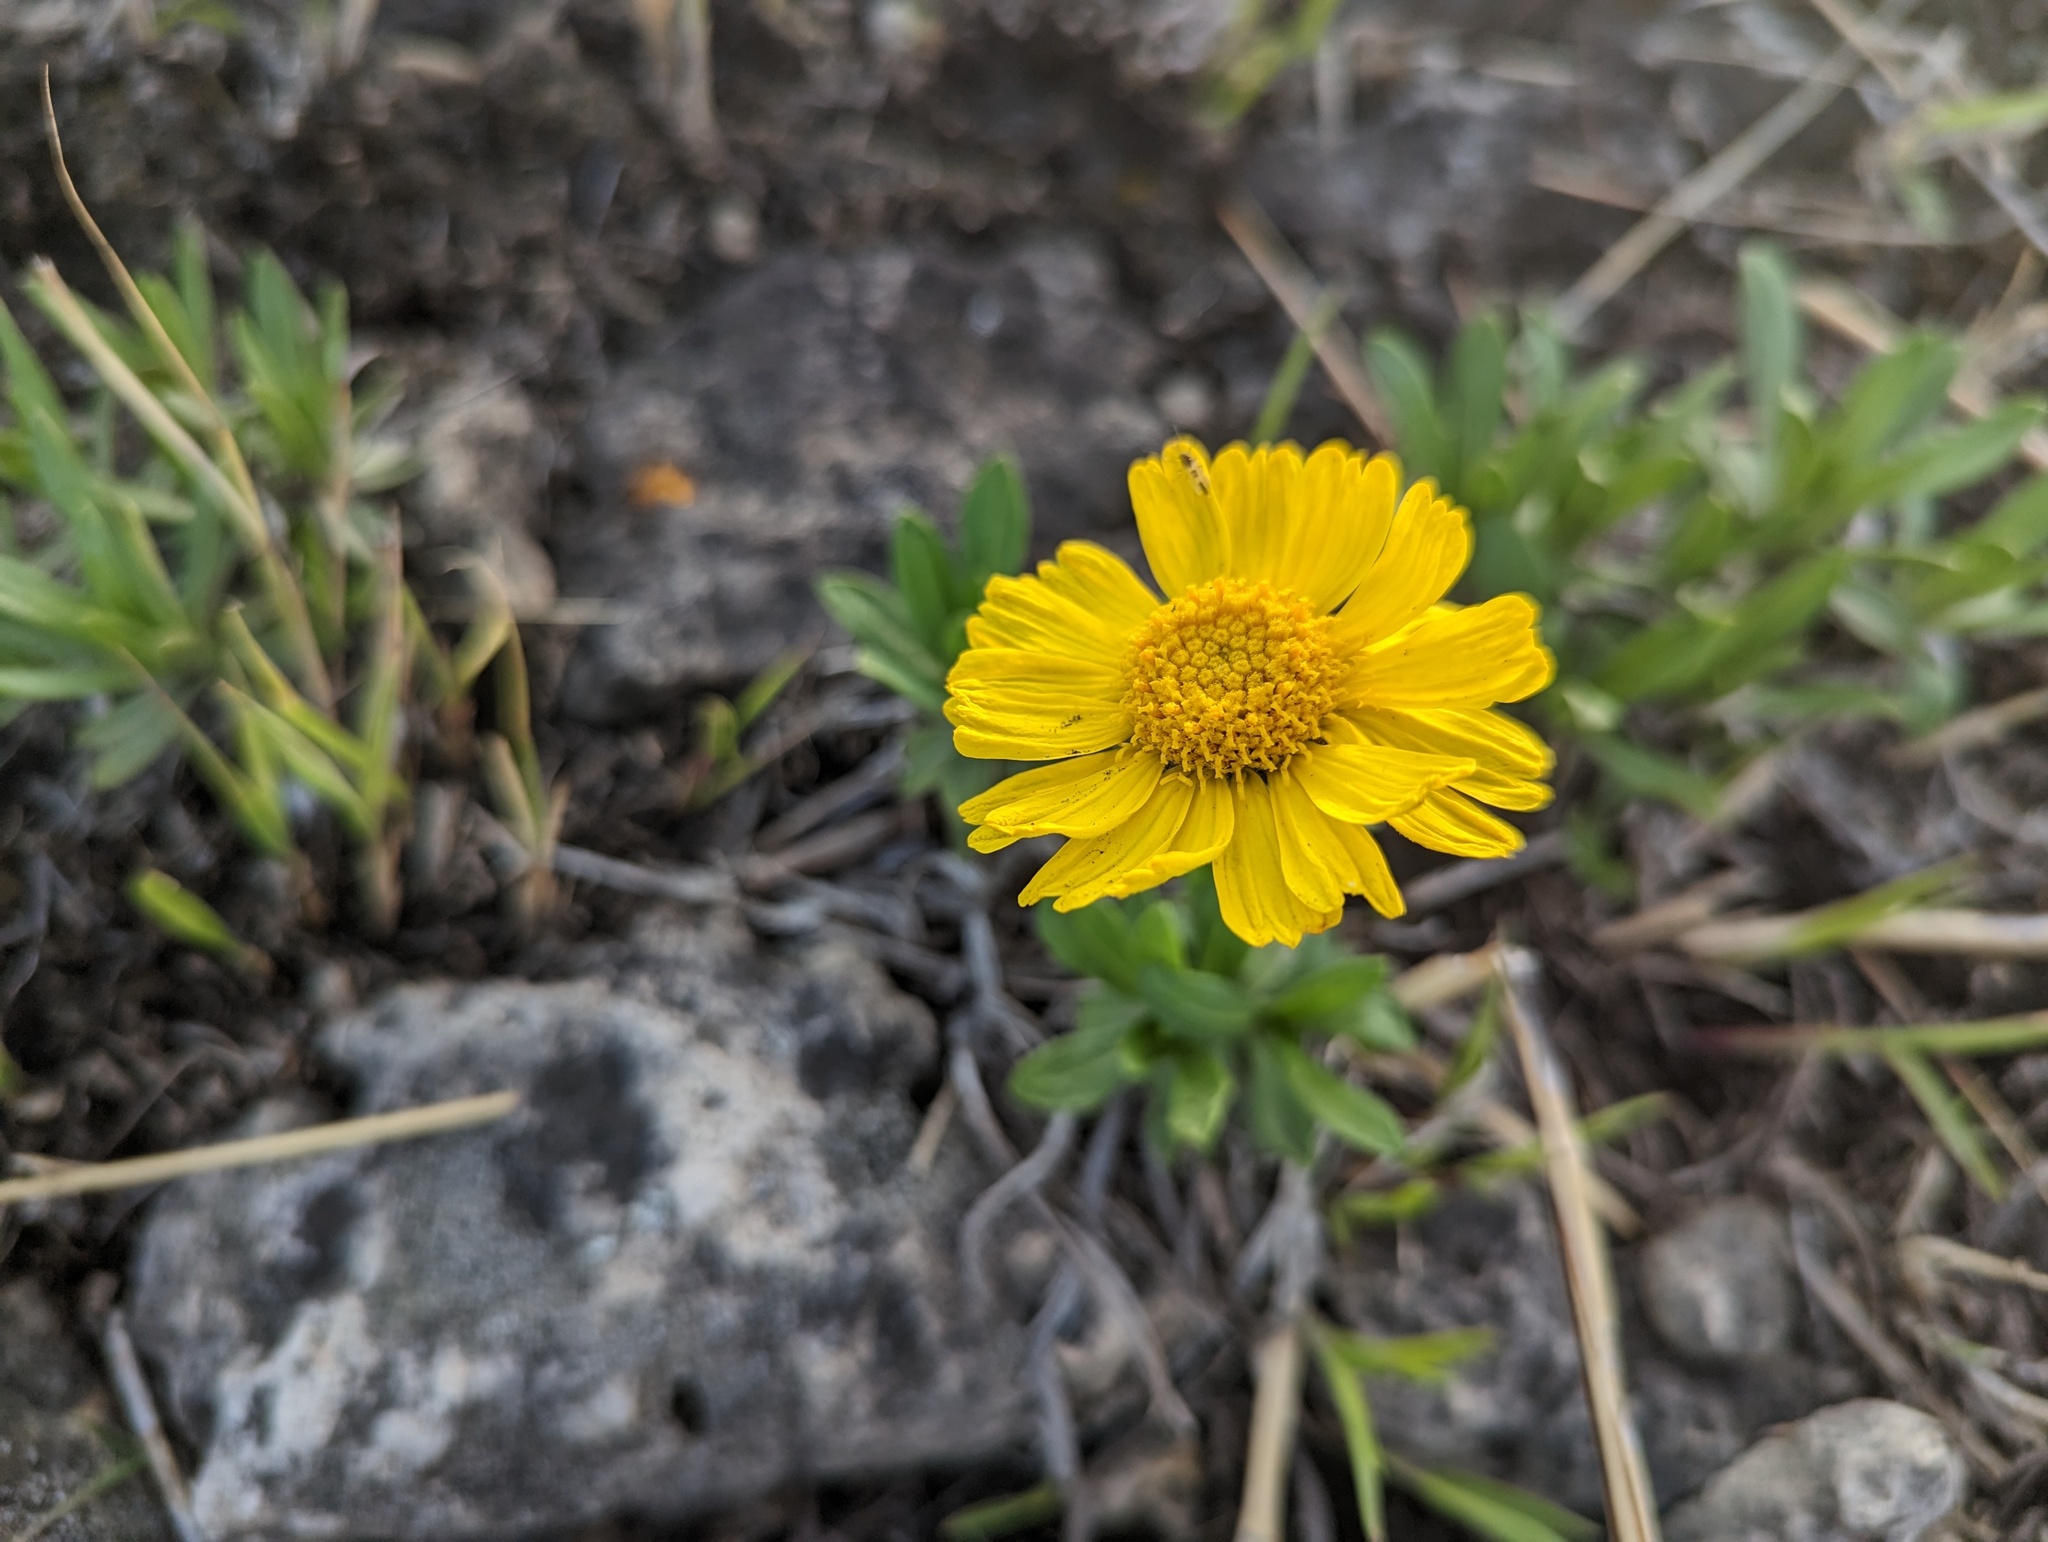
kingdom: Plantae
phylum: Tracheophyta
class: Magnoliopsida
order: Asterales
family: Asteraceae
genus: Tetraneuris
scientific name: Tetraneuris herbacea
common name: Lakeside daisy
